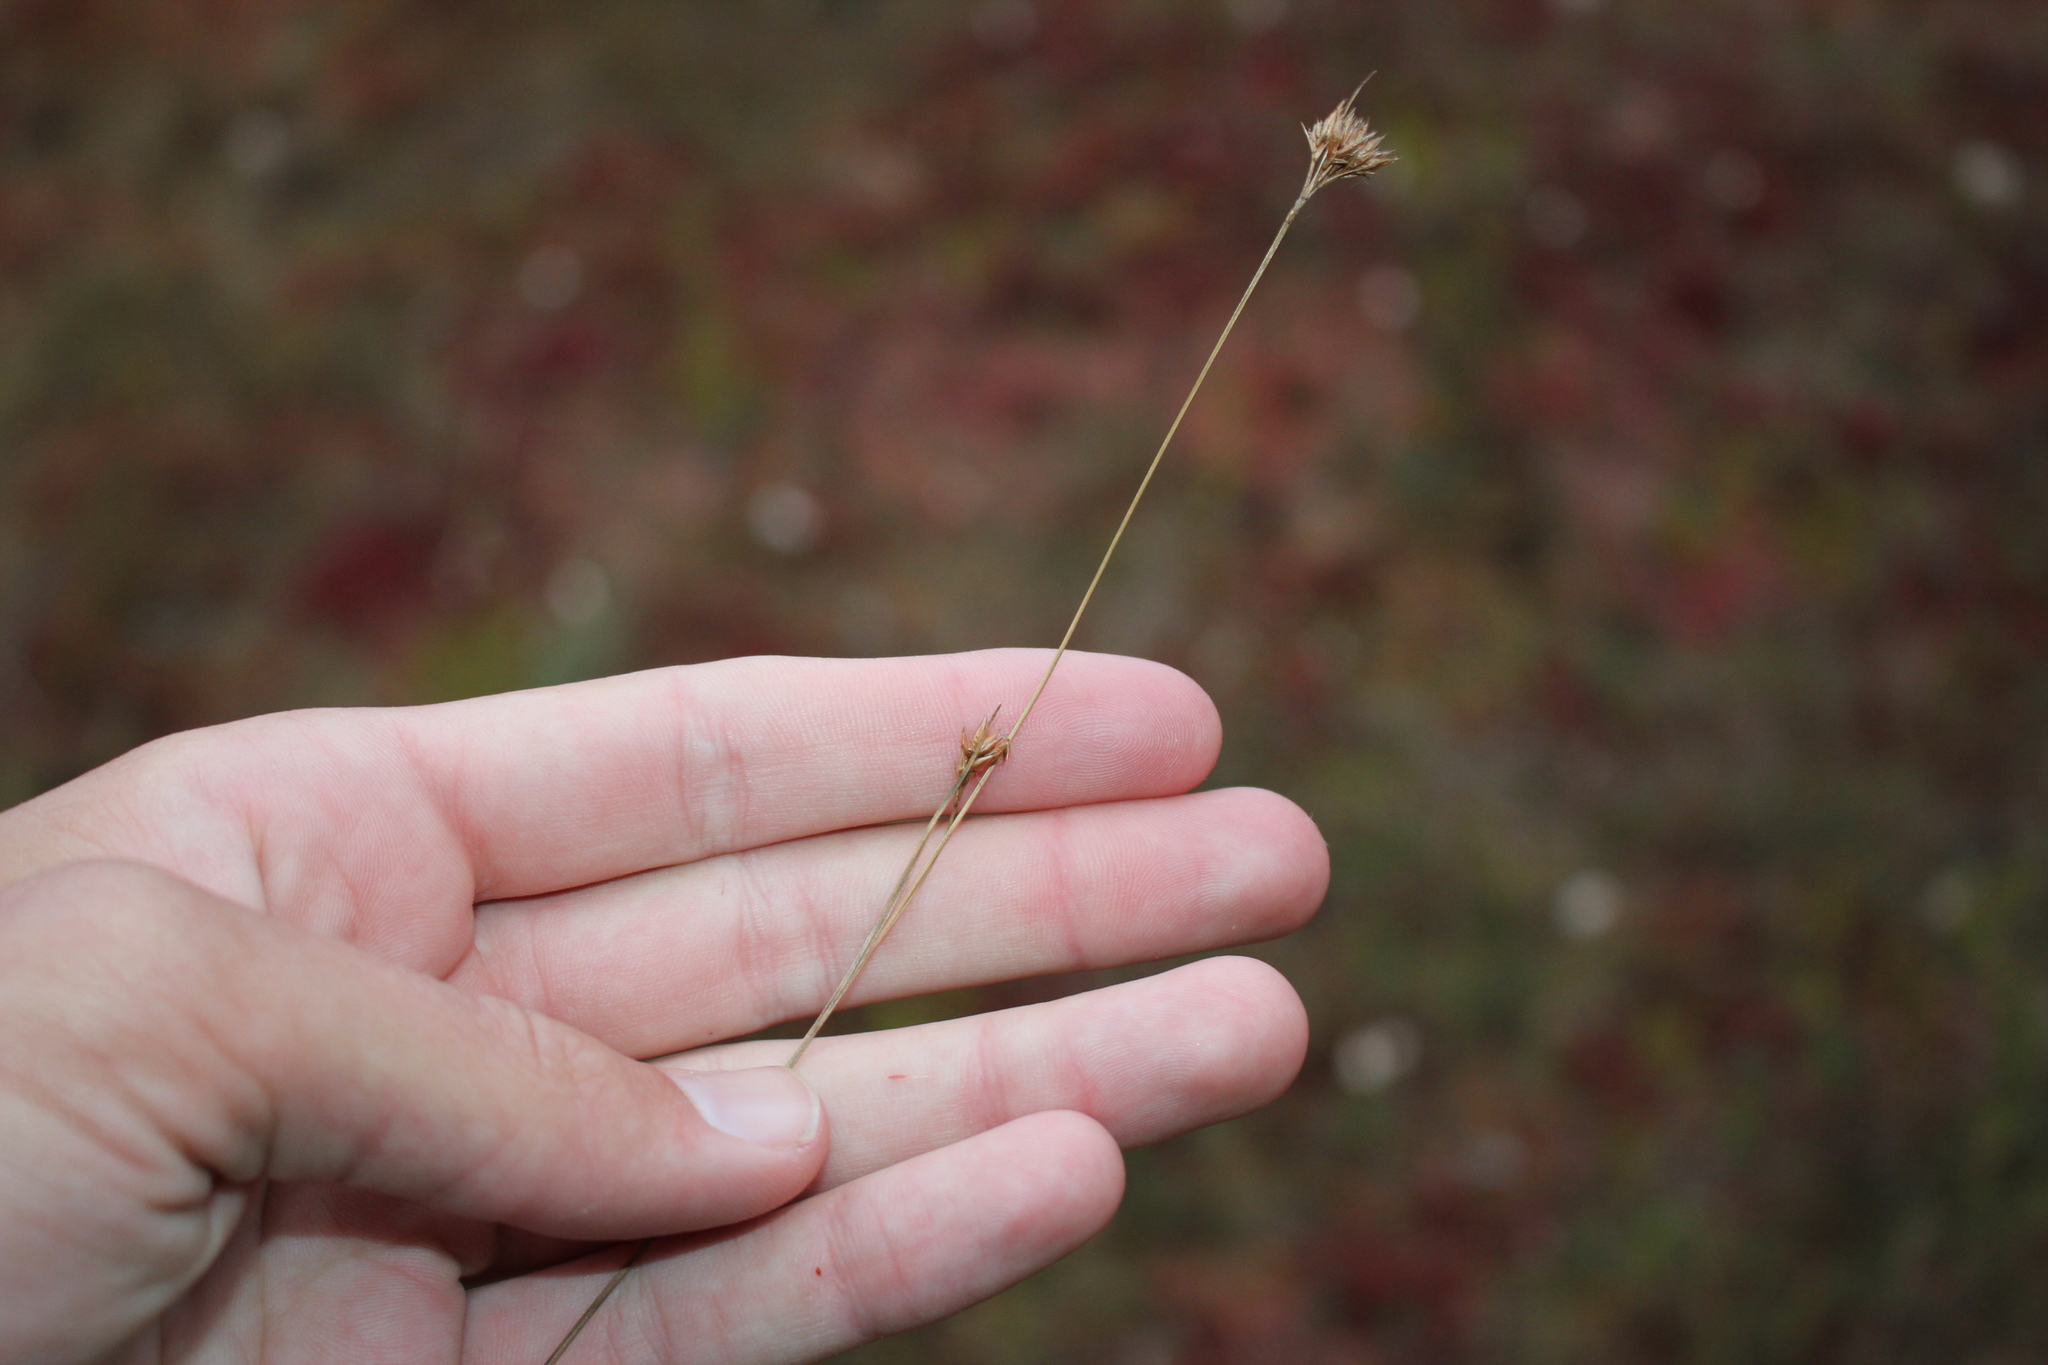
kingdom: Plantae
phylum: Tracheophyta
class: Liliopsida
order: Poales
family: Cyperaceae
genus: Rhynchospora
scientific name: Rhynchospora alba
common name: White beak-sedge
